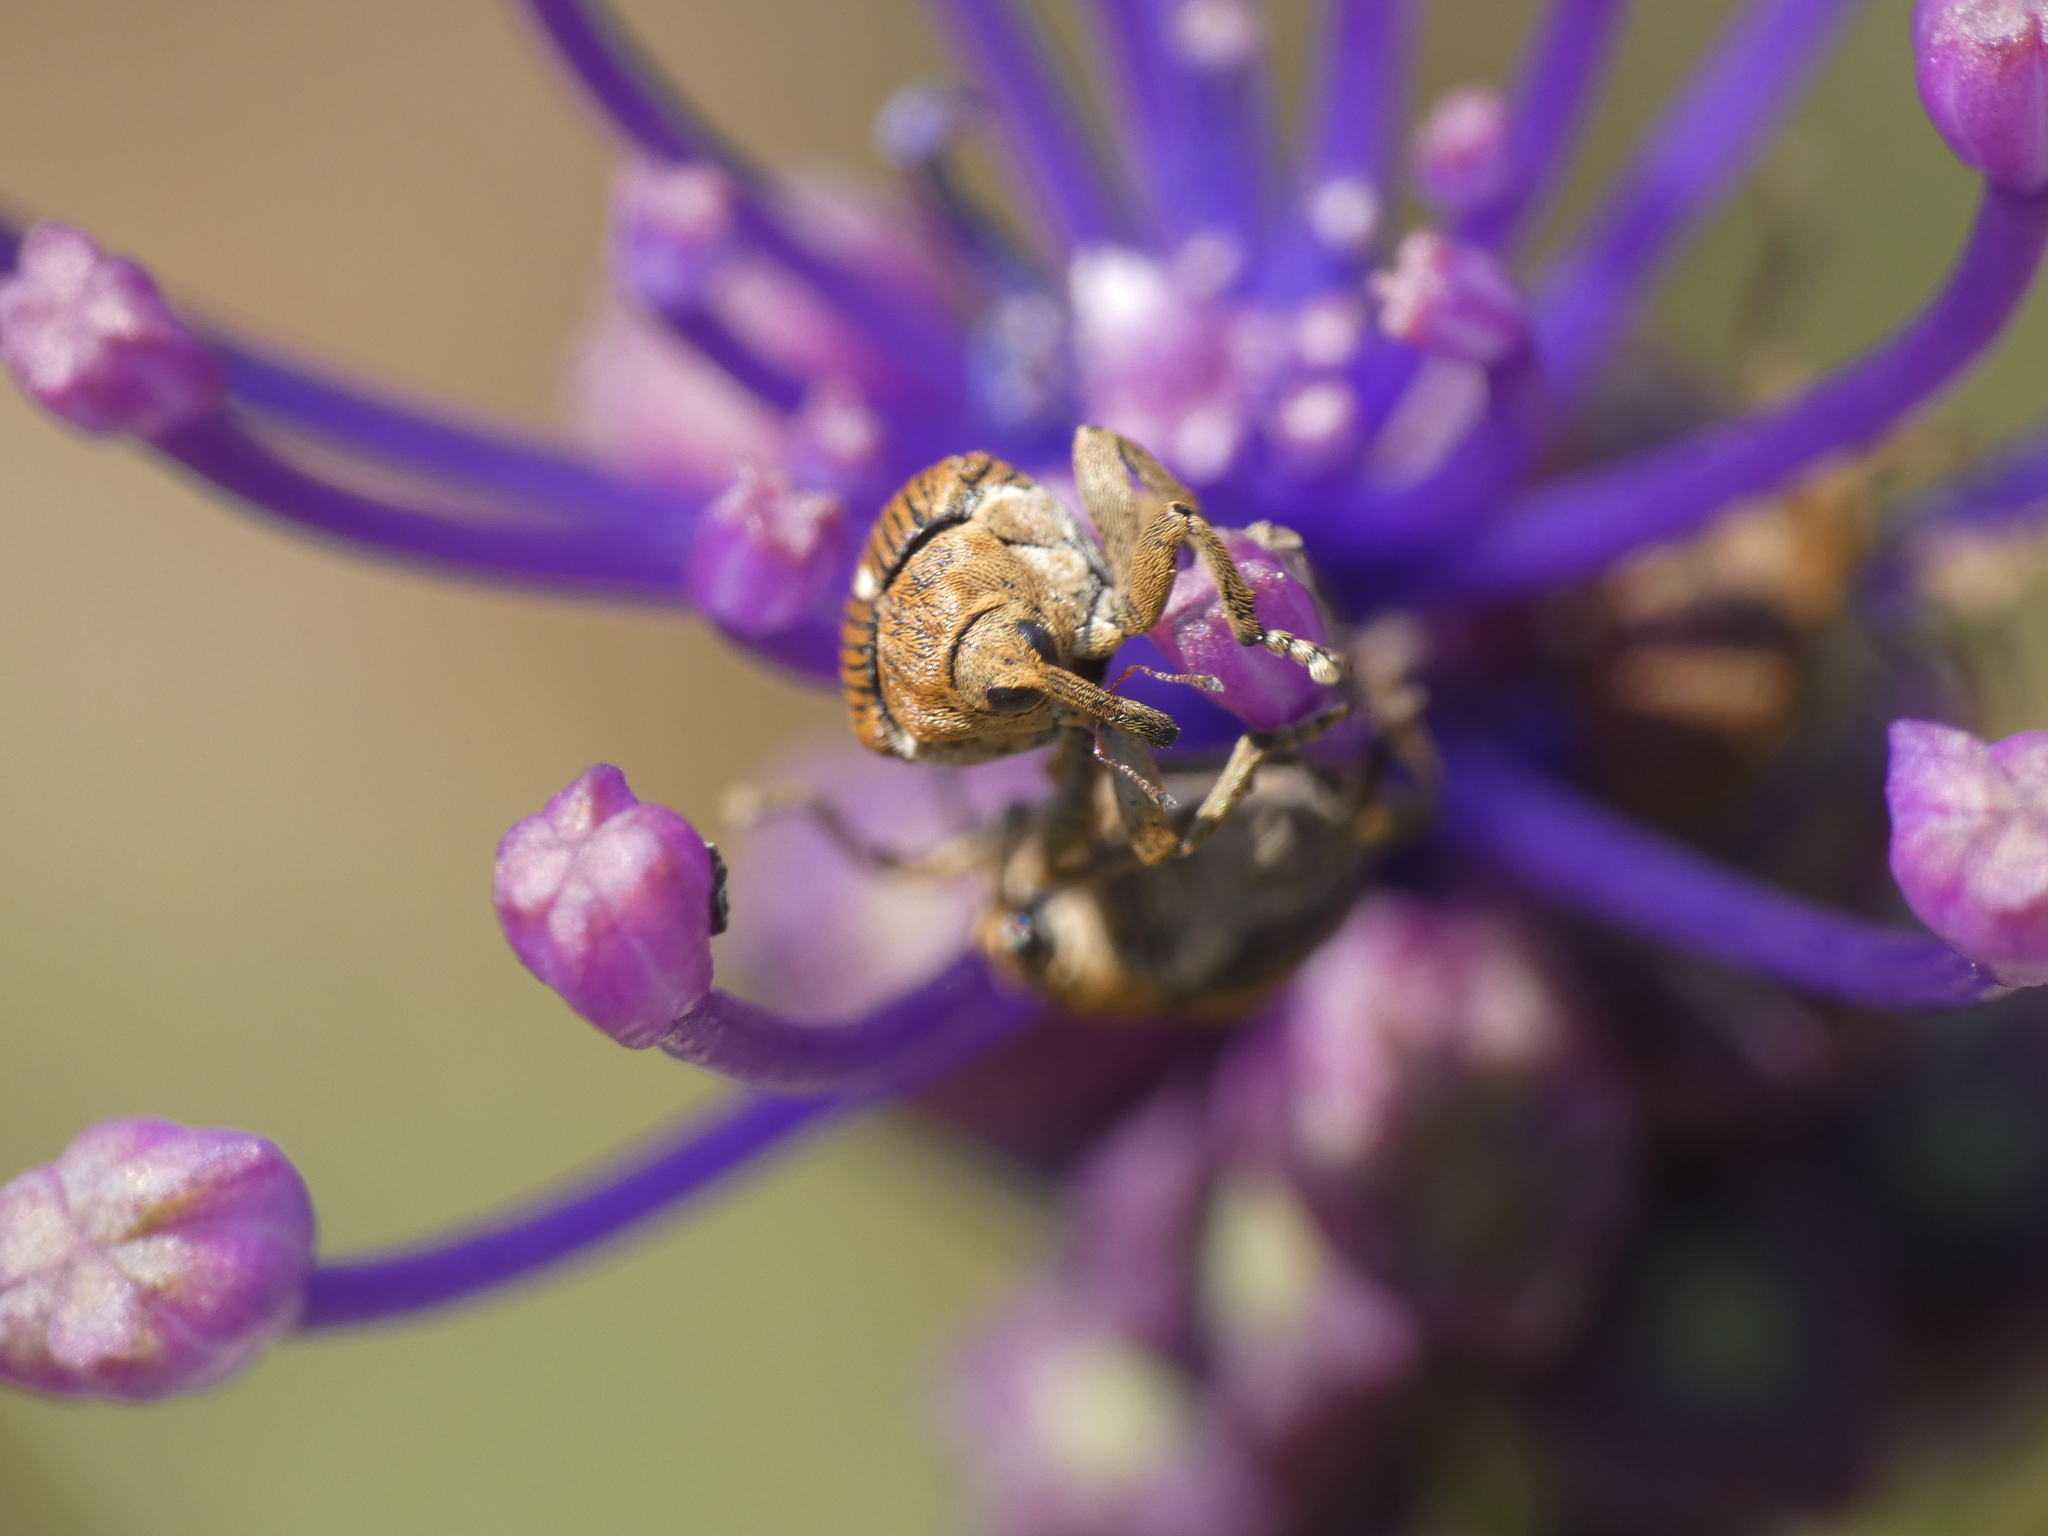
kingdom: Animalia
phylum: Arthropoda
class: Insecta
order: Coleoptera
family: Curculionidae
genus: Mononychus
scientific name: Mononychus punctumalbum
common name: Iris weevil
